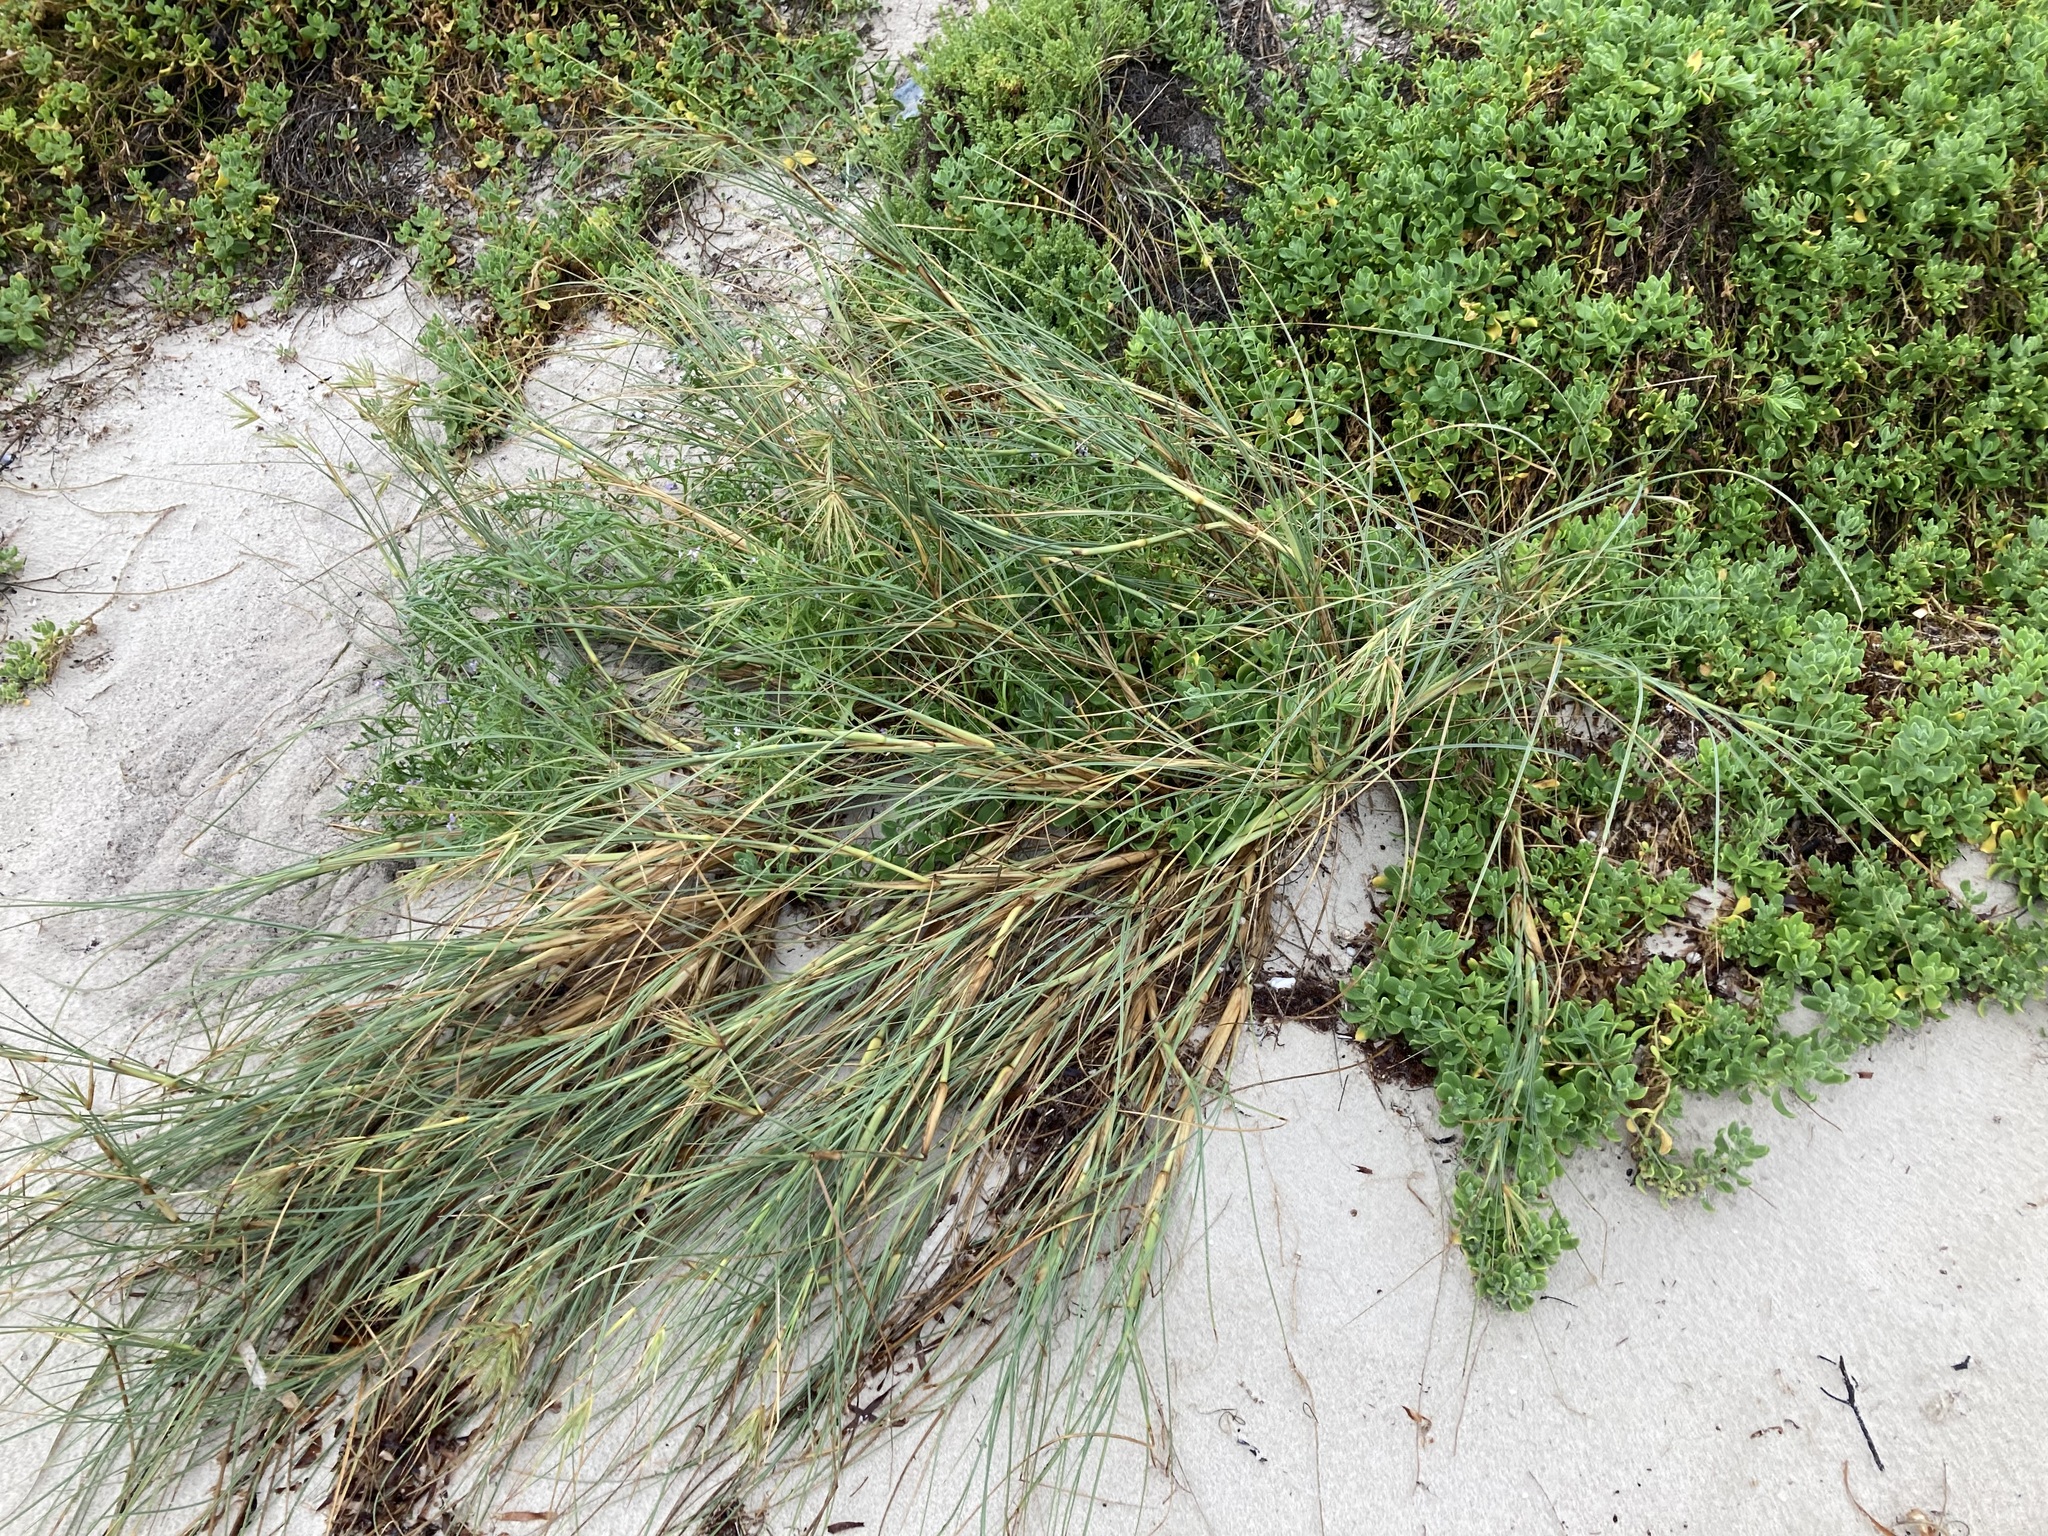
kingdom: Plantae
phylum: Tracheophyta
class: Liliopsida
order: Poales
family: Poaceae
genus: Spinifex
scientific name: Spinifex longifolius
